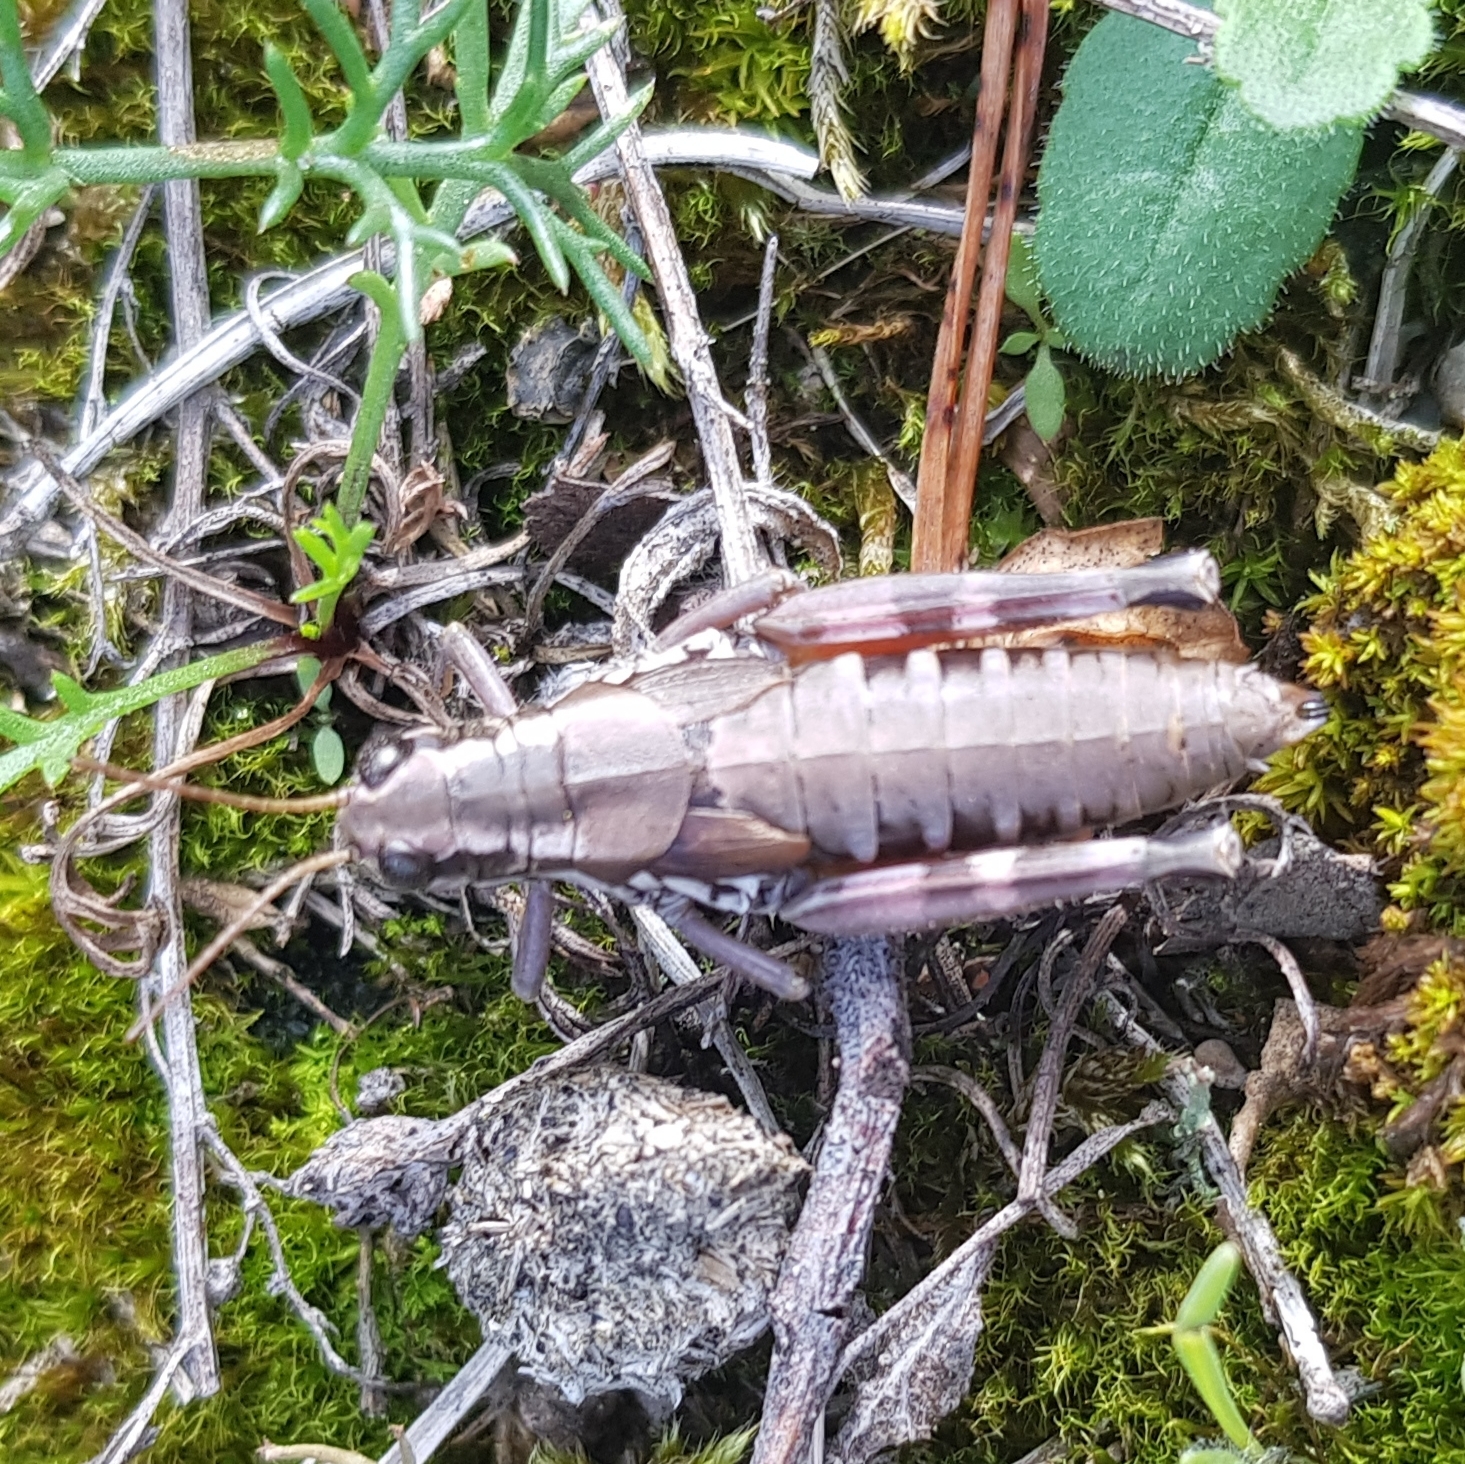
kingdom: Animalia
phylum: Arthropoda
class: Insecta
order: Orthoptera
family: Acrididae
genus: Podisma
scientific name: Podisma pedestris
